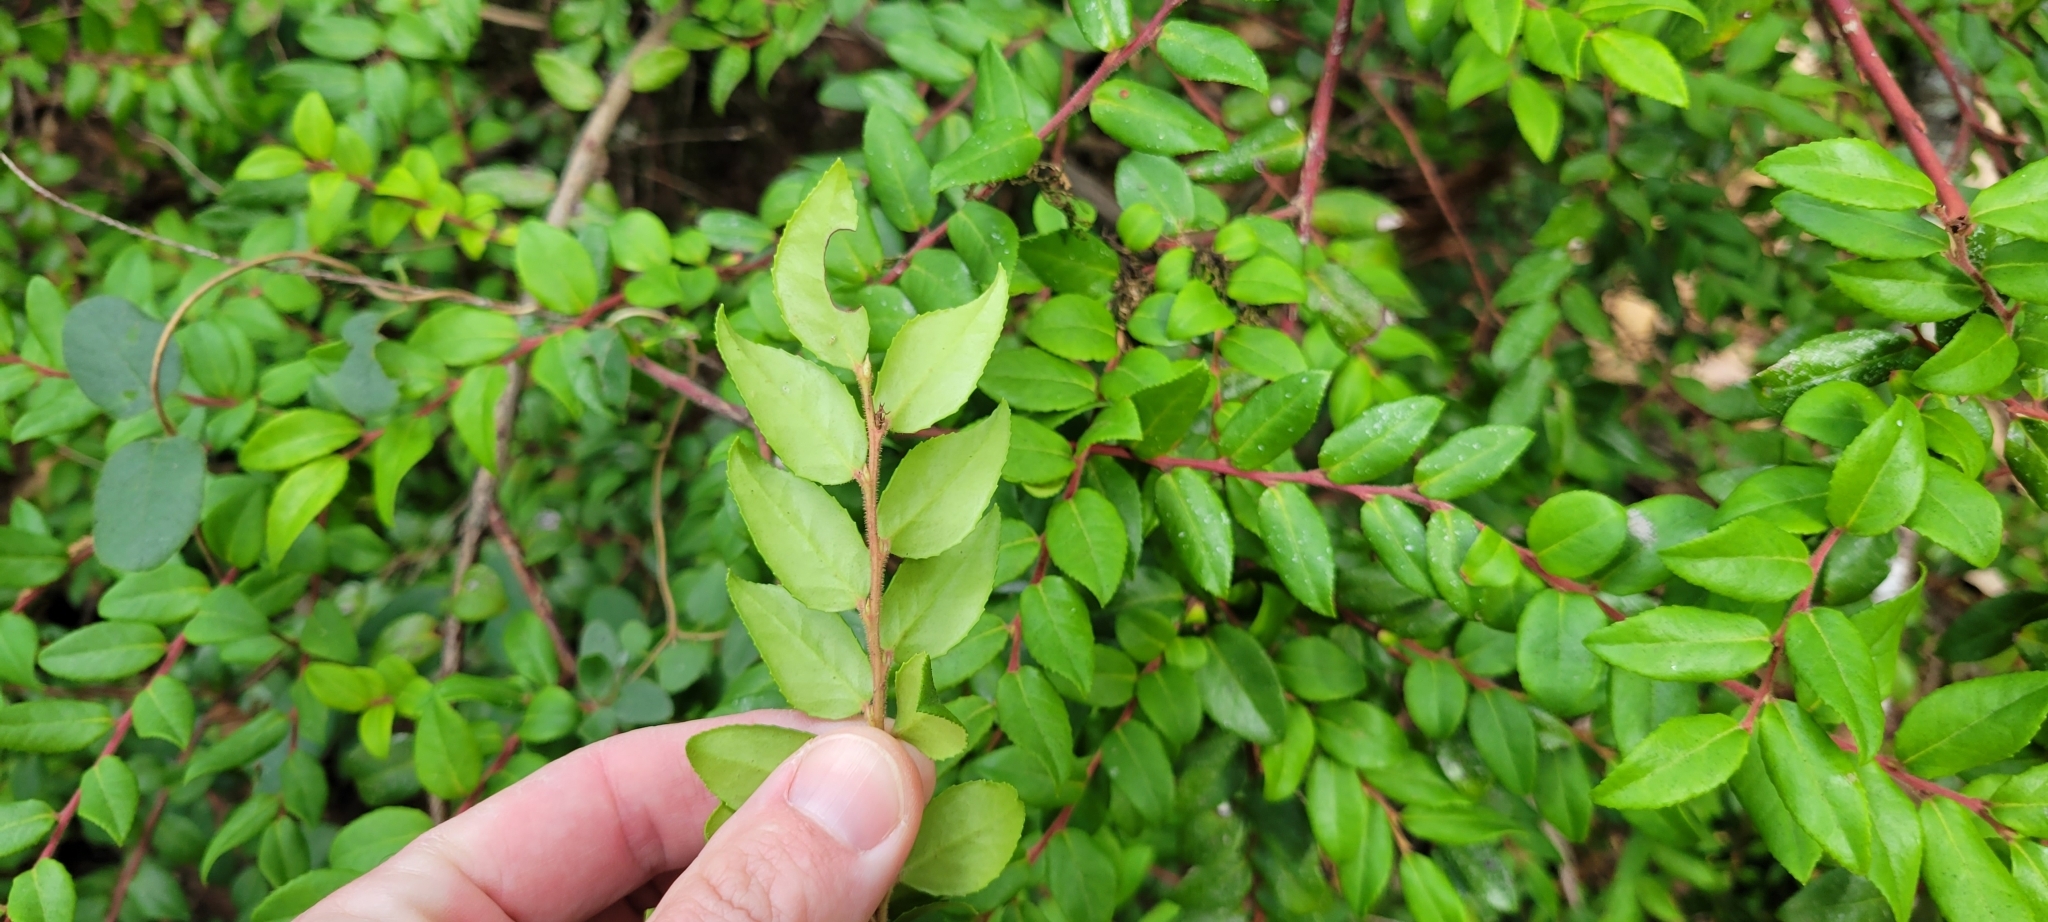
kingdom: Plantae
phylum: Tracheophyta
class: Magnoliopsida
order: Ericales
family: Ericaceae
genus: Vaccinium
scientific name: Vaccinium ovatum
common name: California-huckleberry
